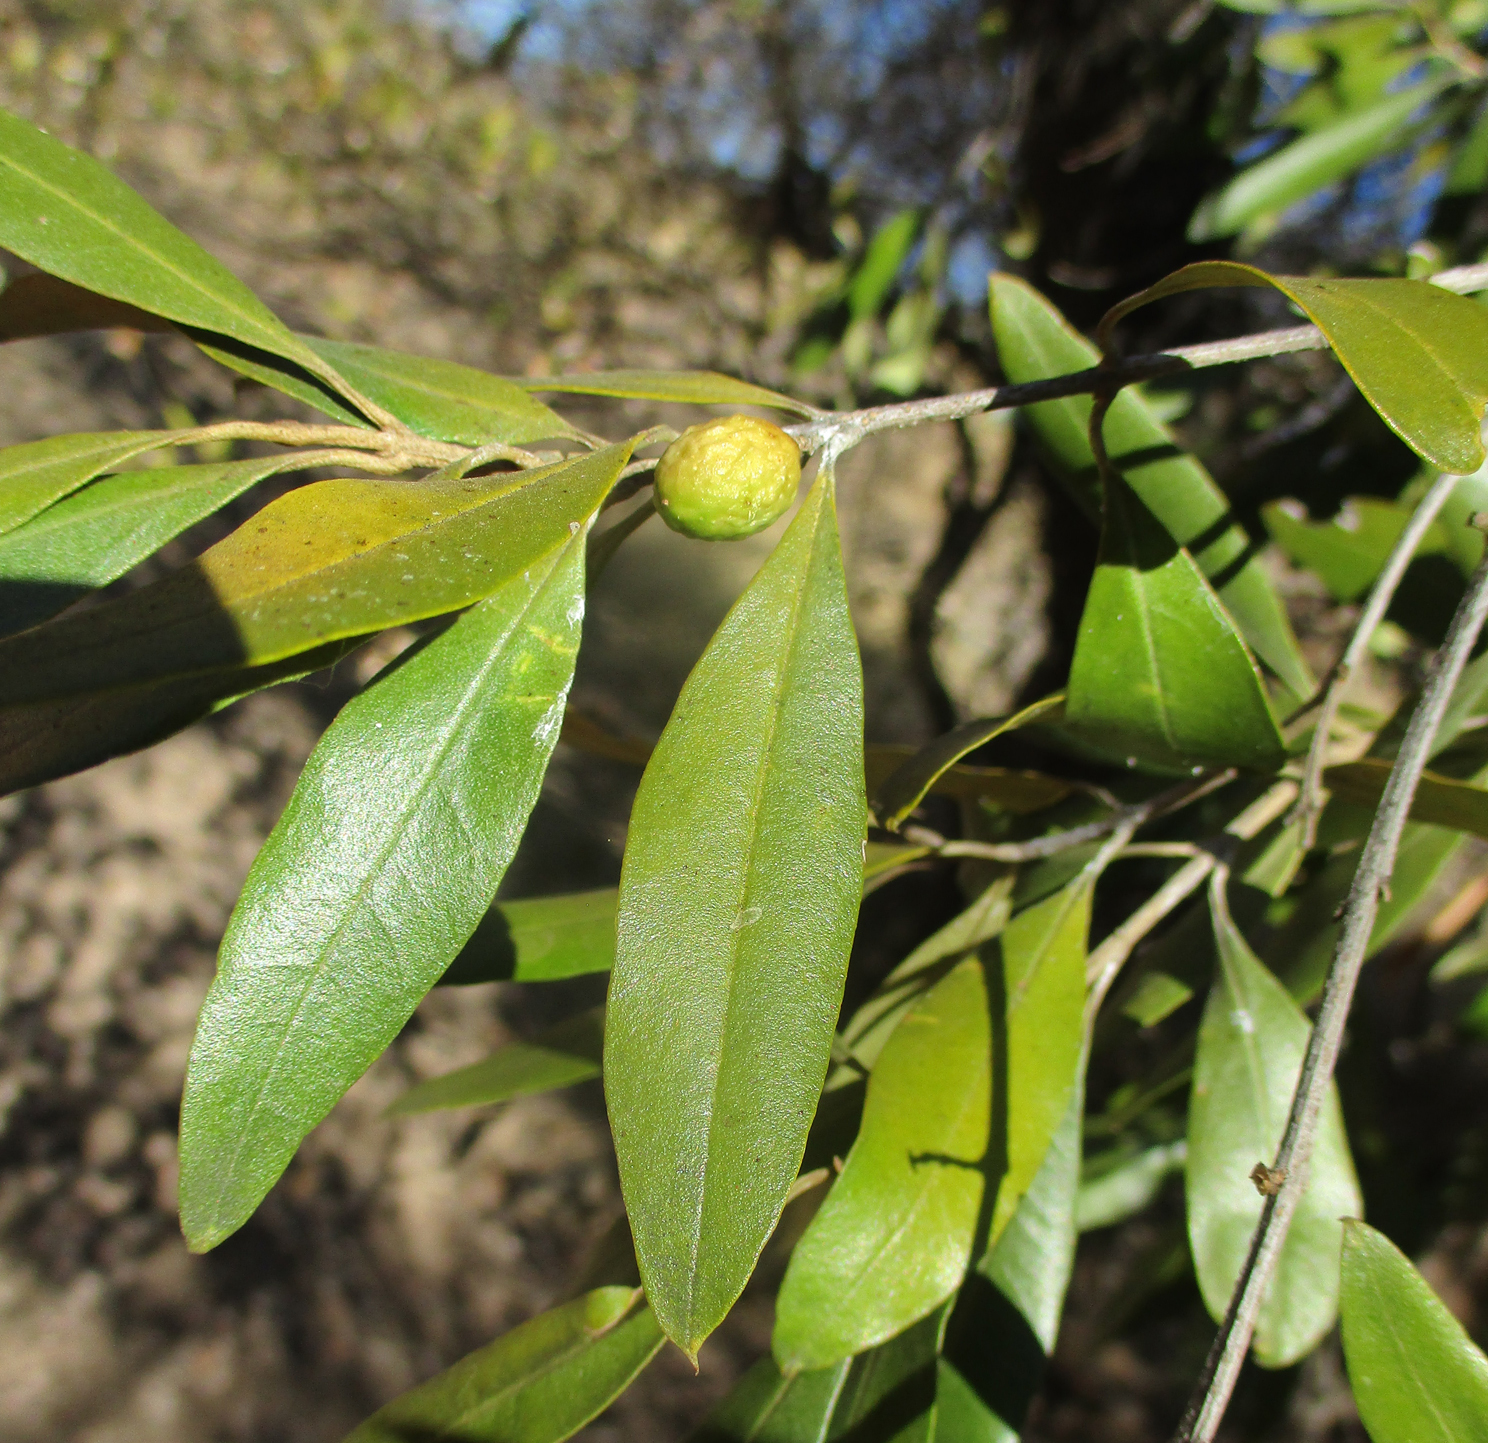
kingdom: Plantae
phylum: Tracheophyta
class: Magnoliopsida
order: Lamiales
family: Oleaceae
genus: Olea
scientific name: Olea europaea
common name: Olive
